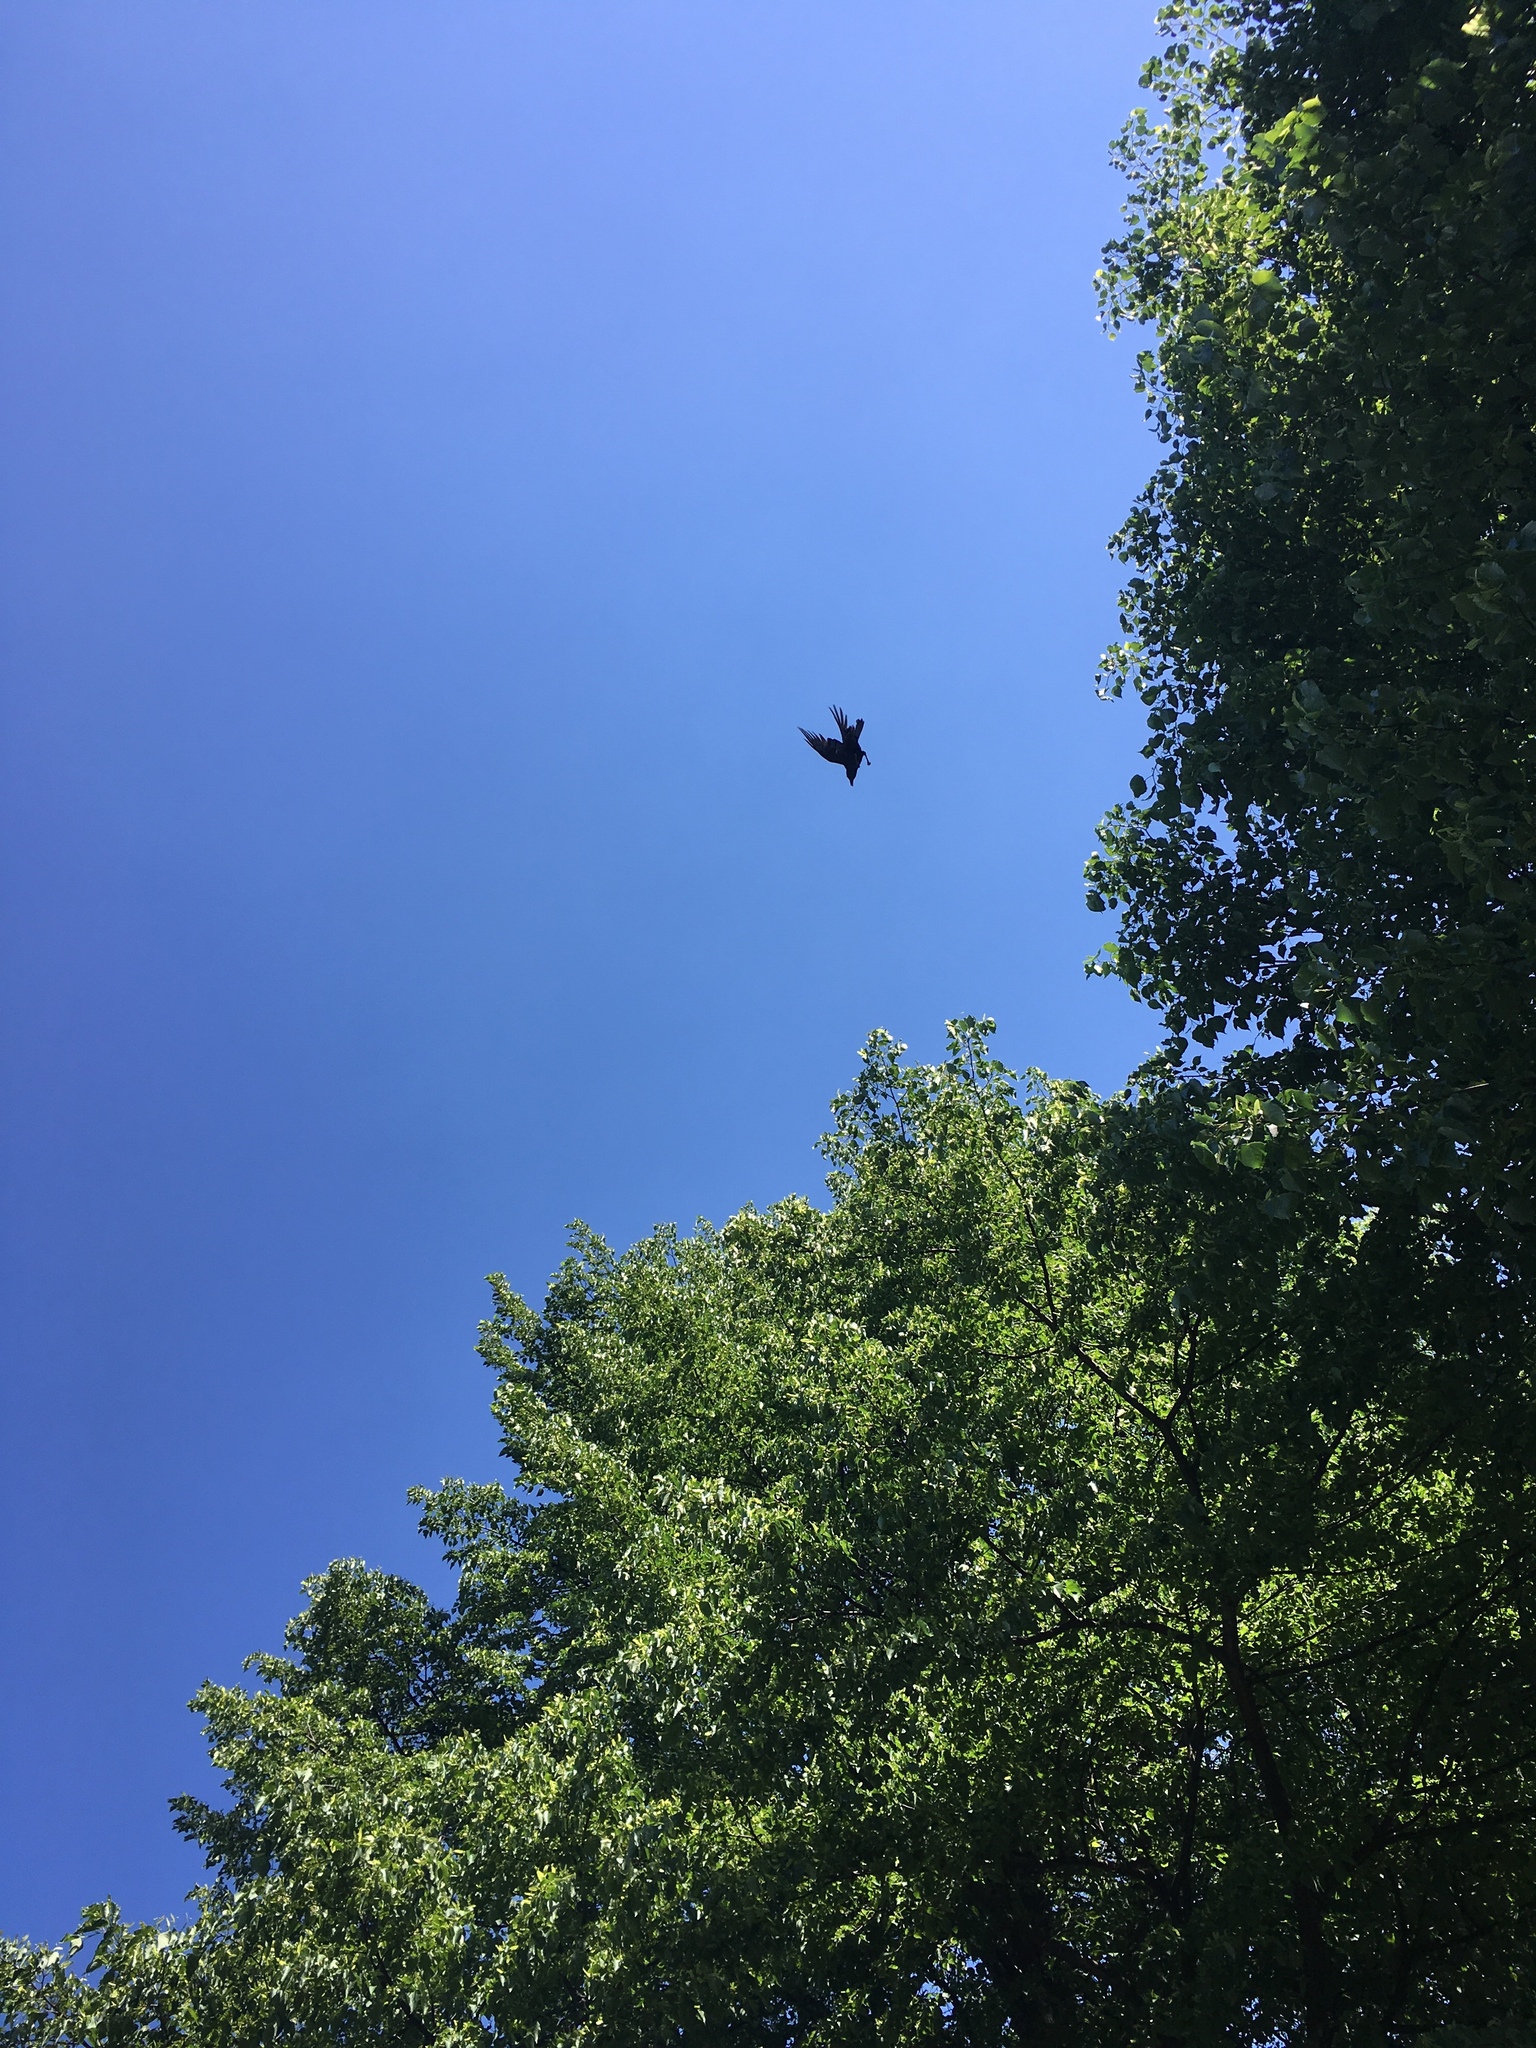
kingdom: Animalia
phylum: Chordata
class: Aves
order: Passeriformes
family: Corvidae
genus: Corvus
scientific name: Corvus brachyrhynchos
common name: American crow
